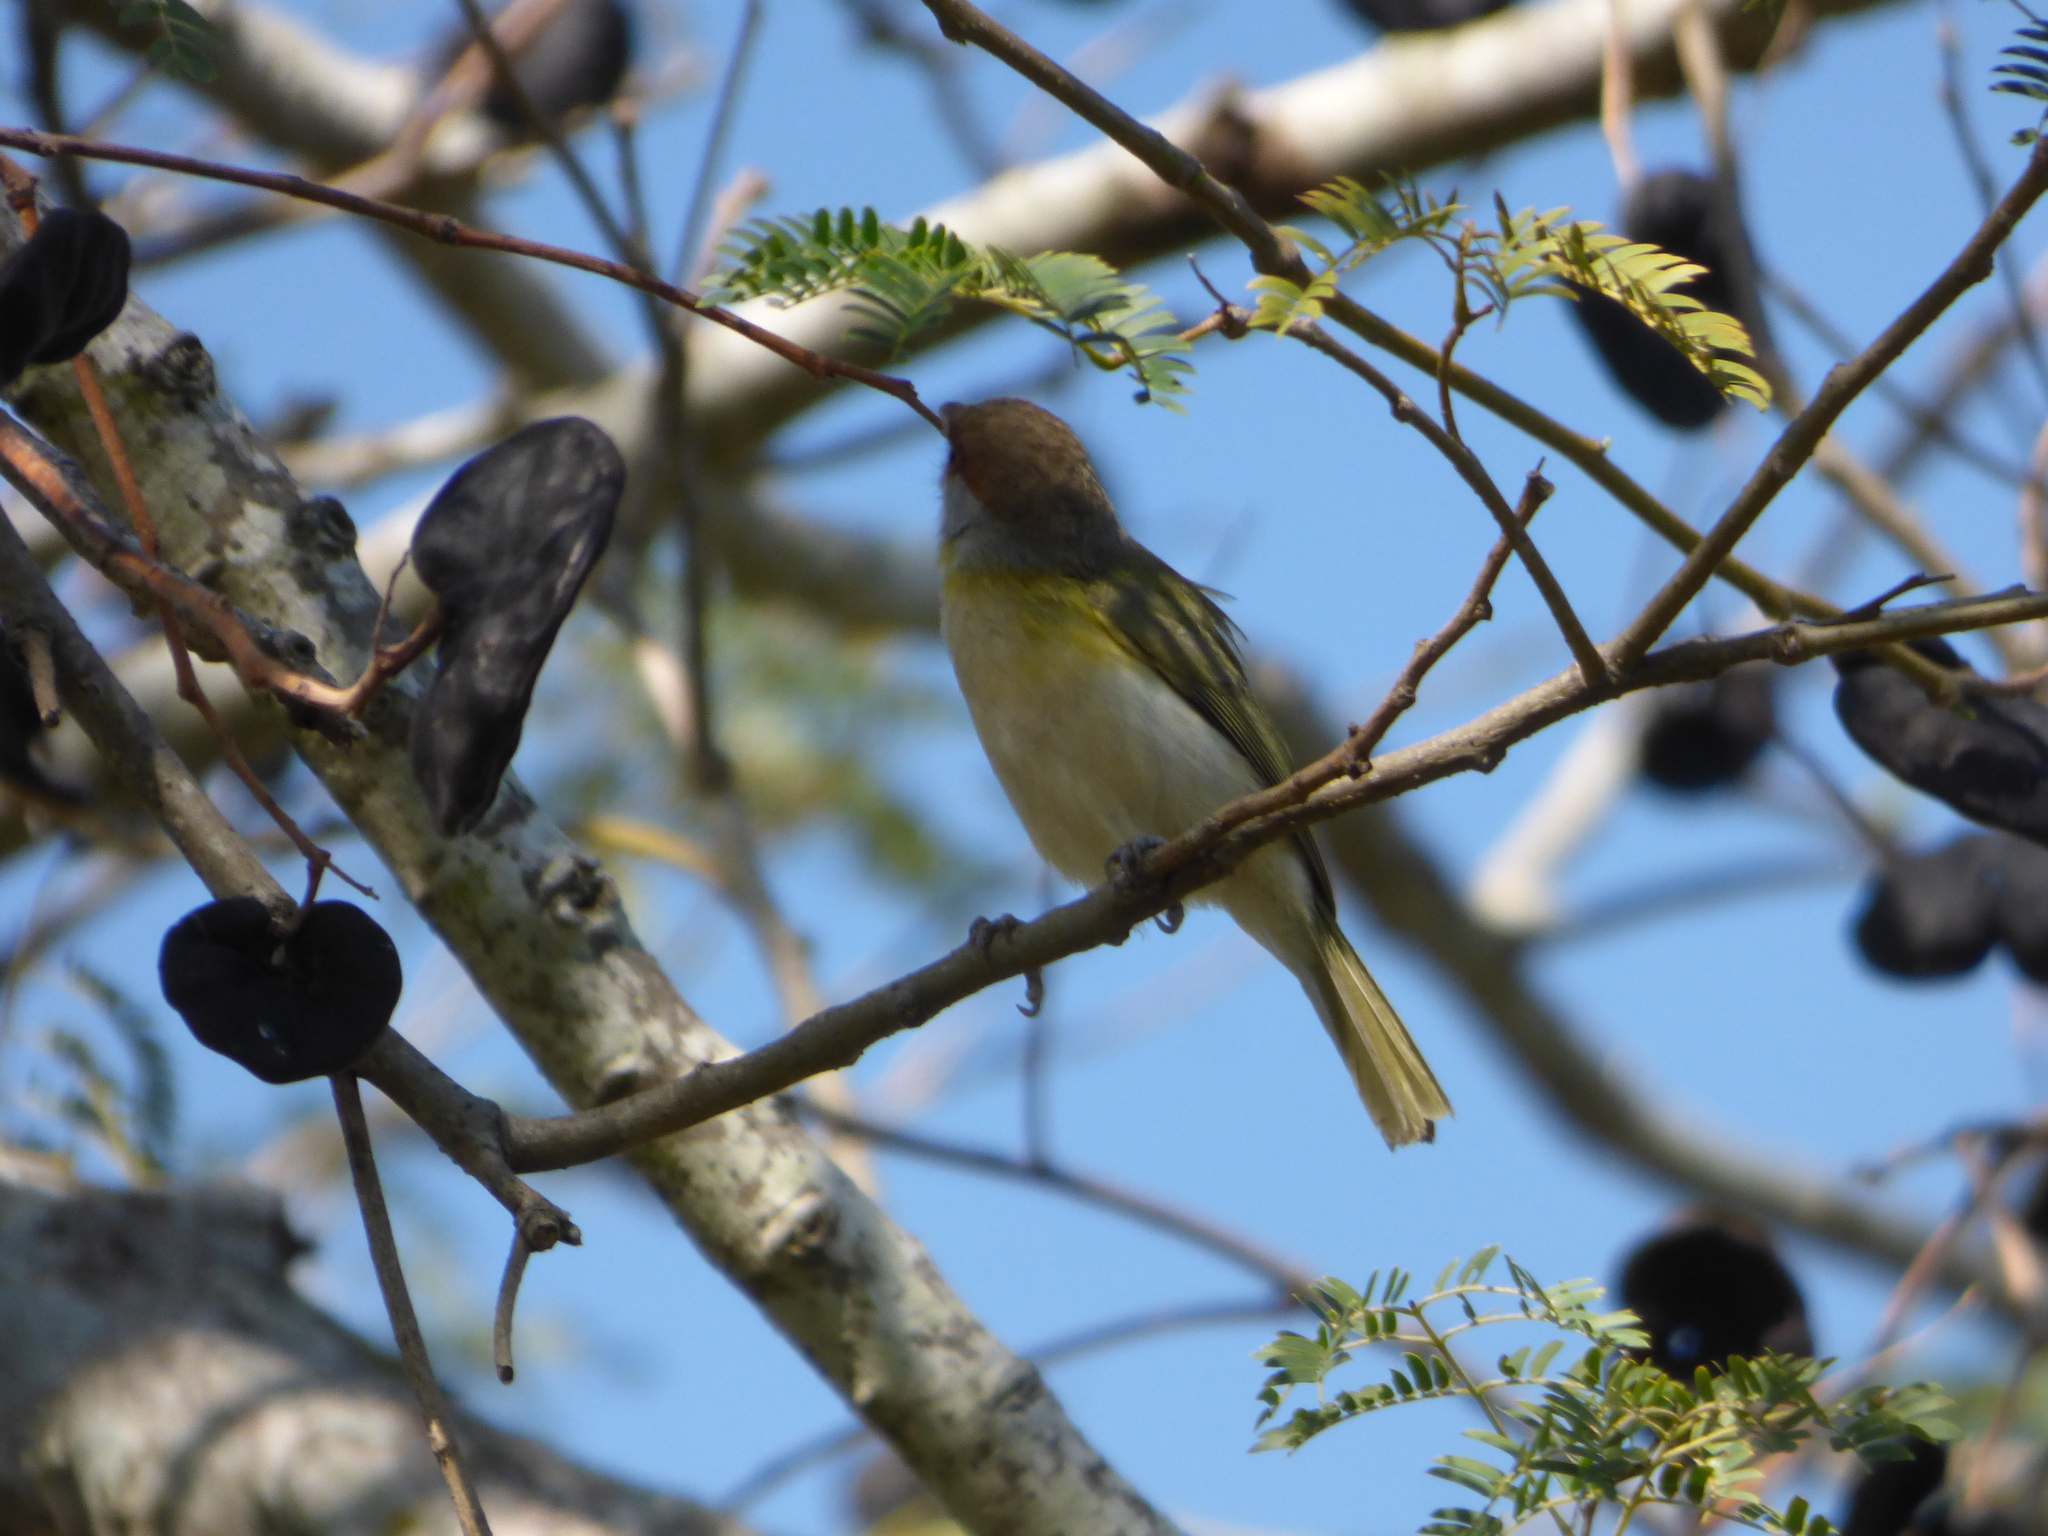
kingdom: Animalia
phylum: Chordata
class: Aves
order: Passeriformes
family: Vireonidae
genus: Cyclarhis
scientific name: Cyclarhis gujanensis
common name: Rufous-browed peppershrike
